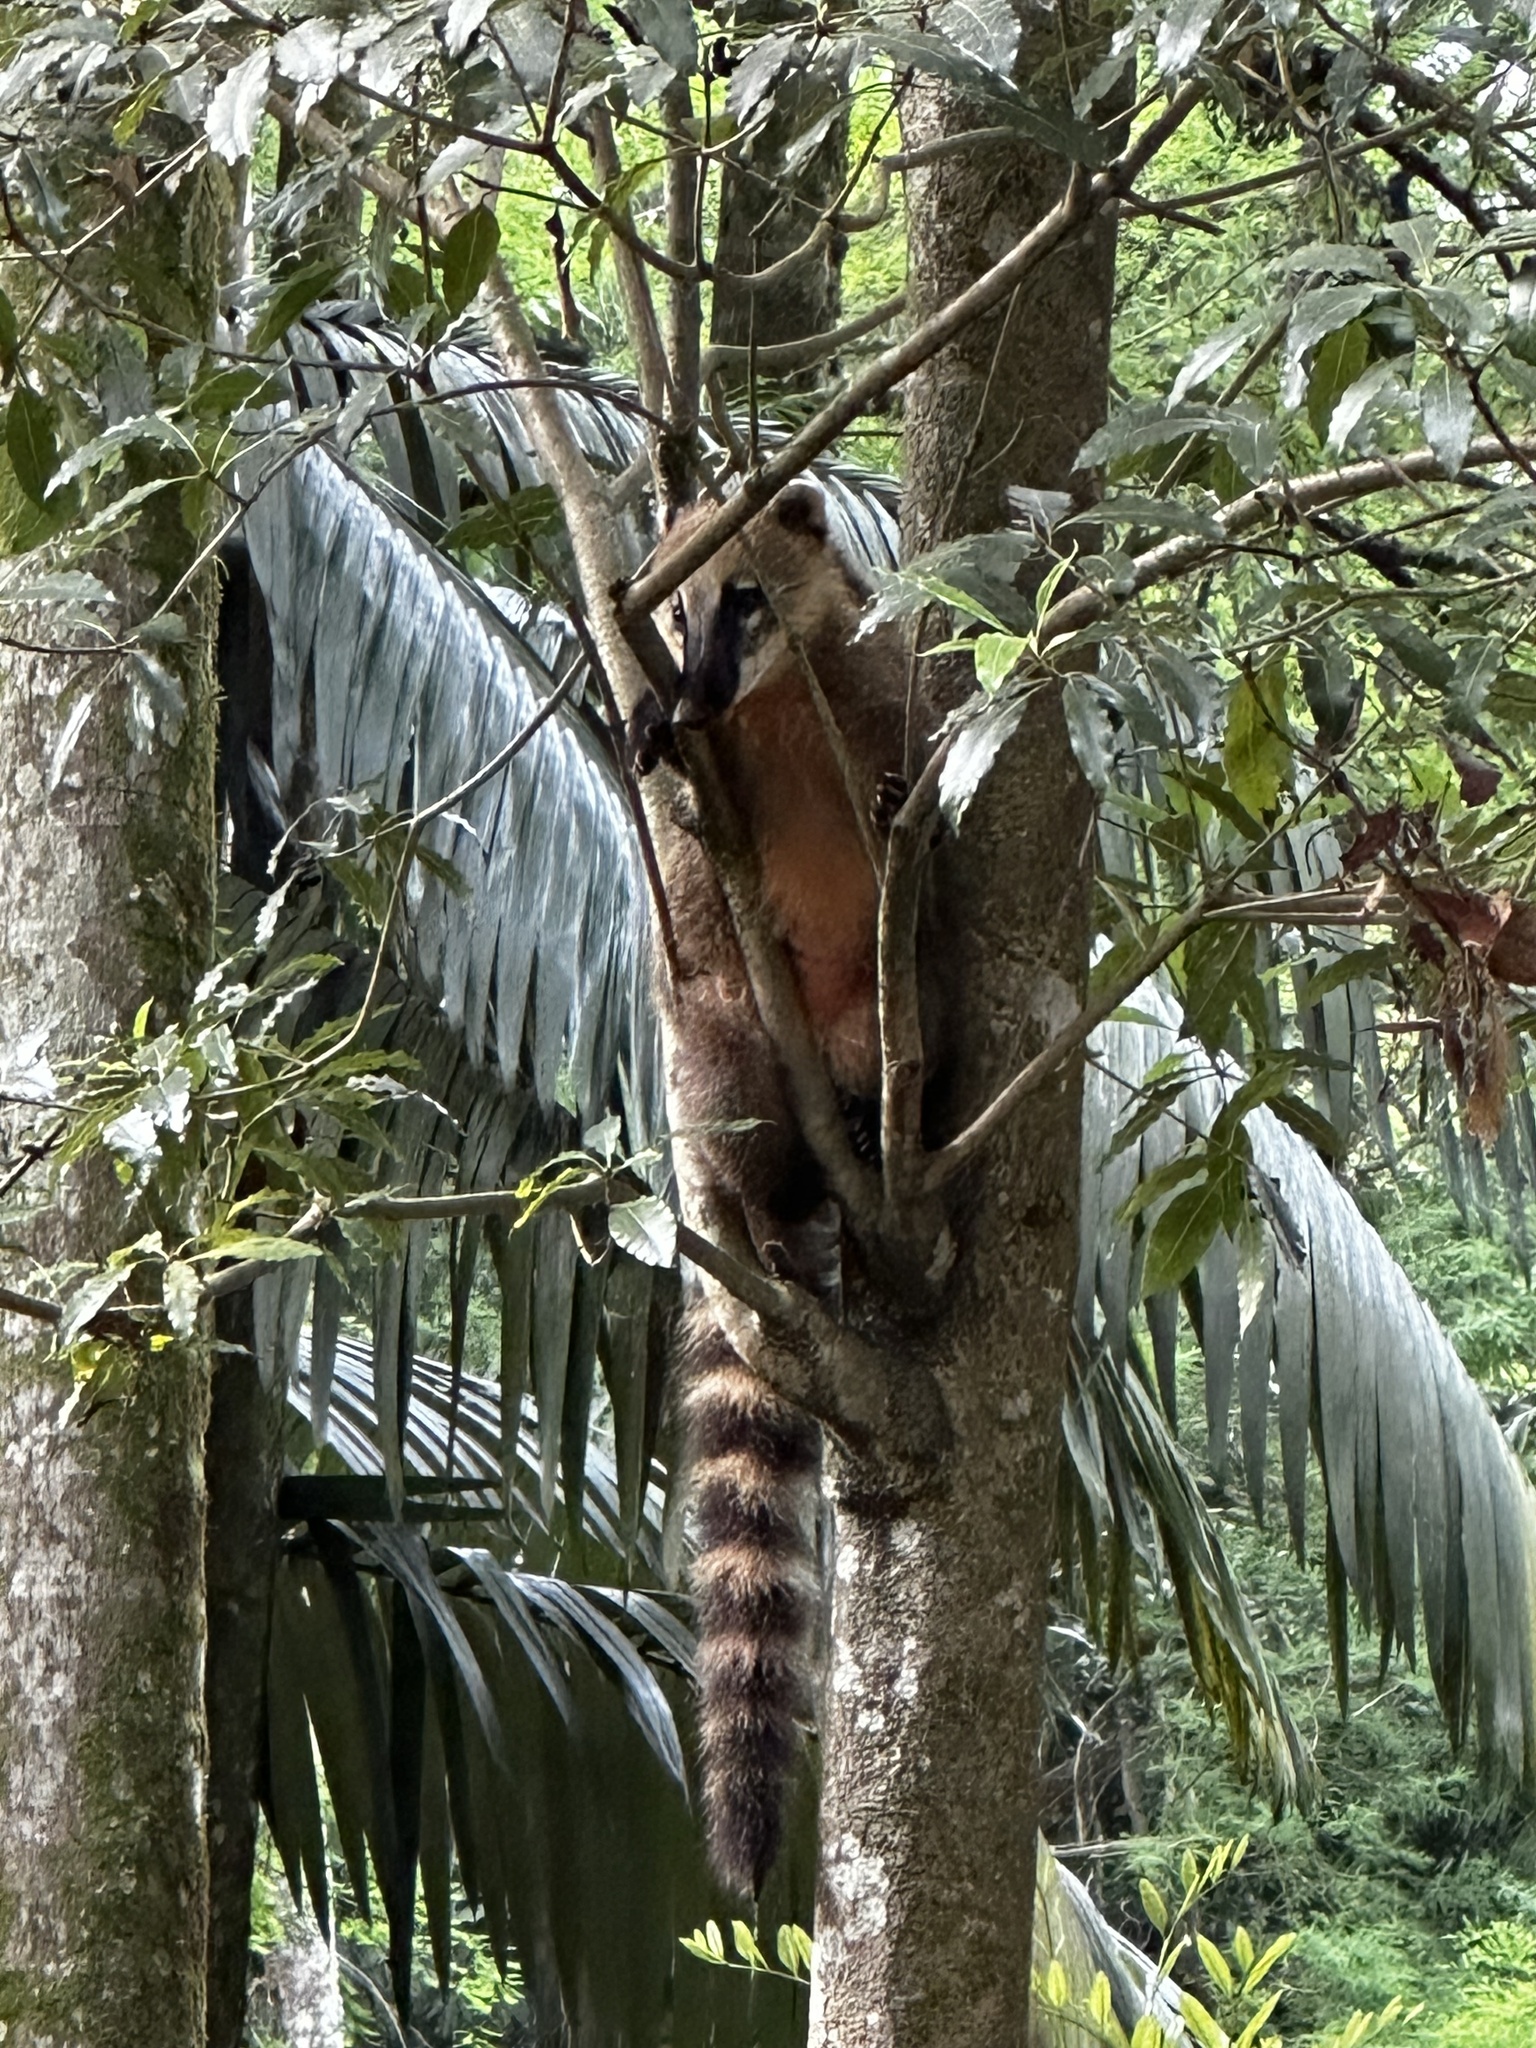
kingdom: Animalia
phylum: Chordata
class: Mammalia
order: Carnivora
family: Procyonidae
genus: Nasua
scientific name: Nasua nasua
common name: South american coati
